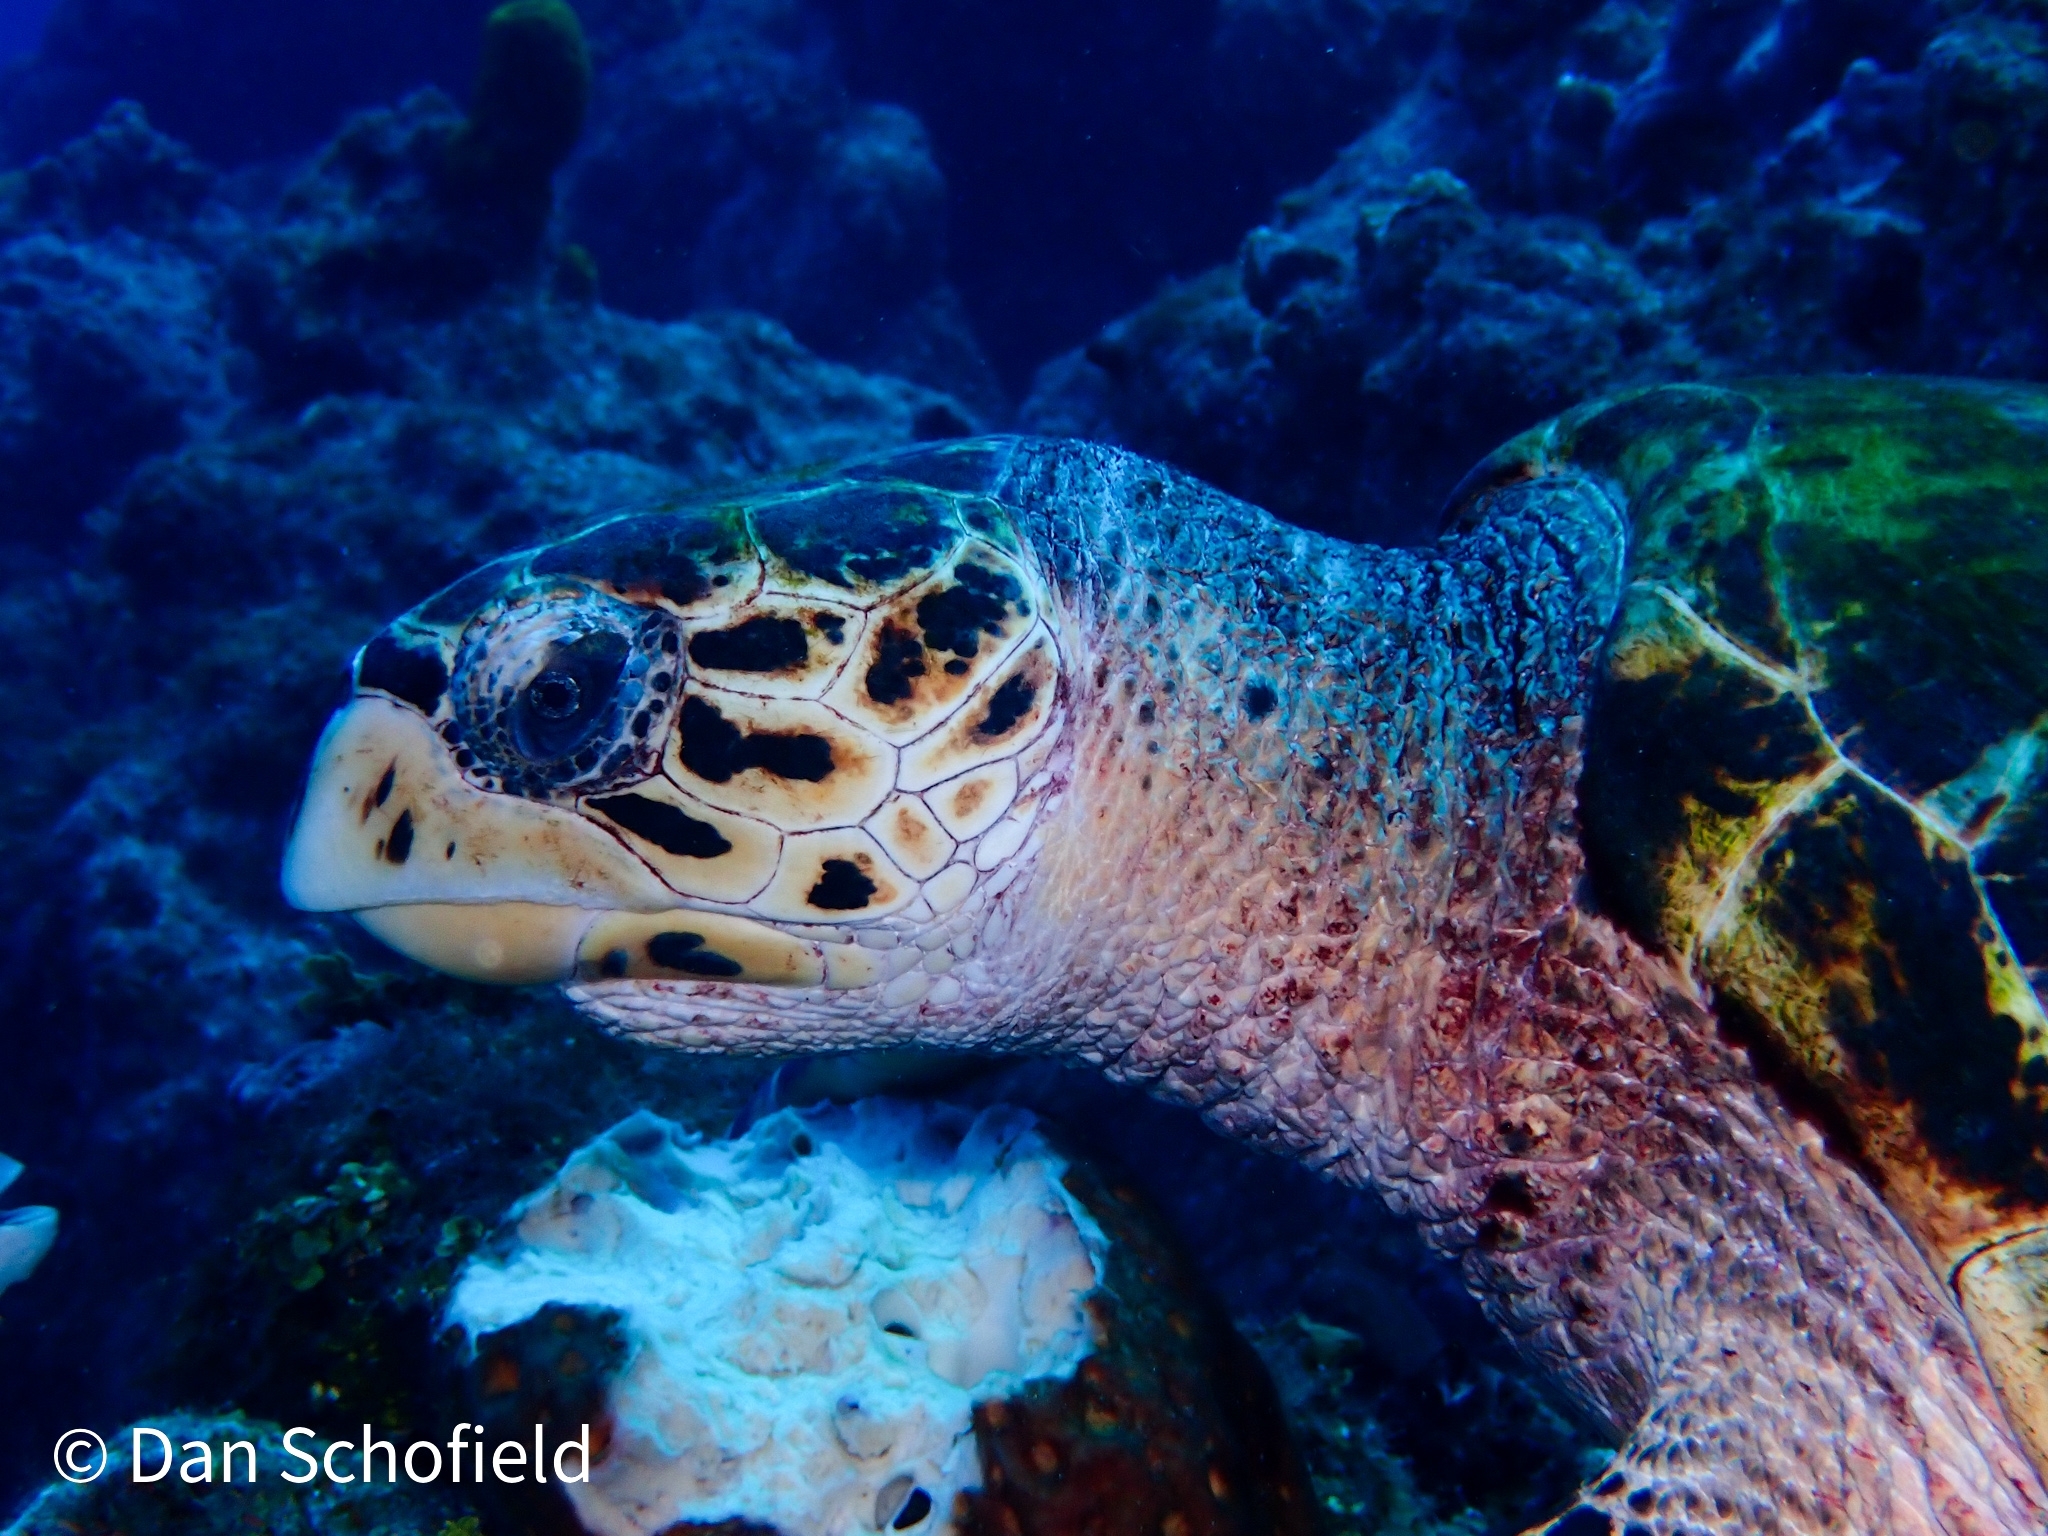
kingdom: Animalia
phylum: Chordata
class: Testudines
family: Cheloniidae
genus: Eretmochelys
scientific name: Eretmochelys imbricata
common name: Hawksbill turtle
